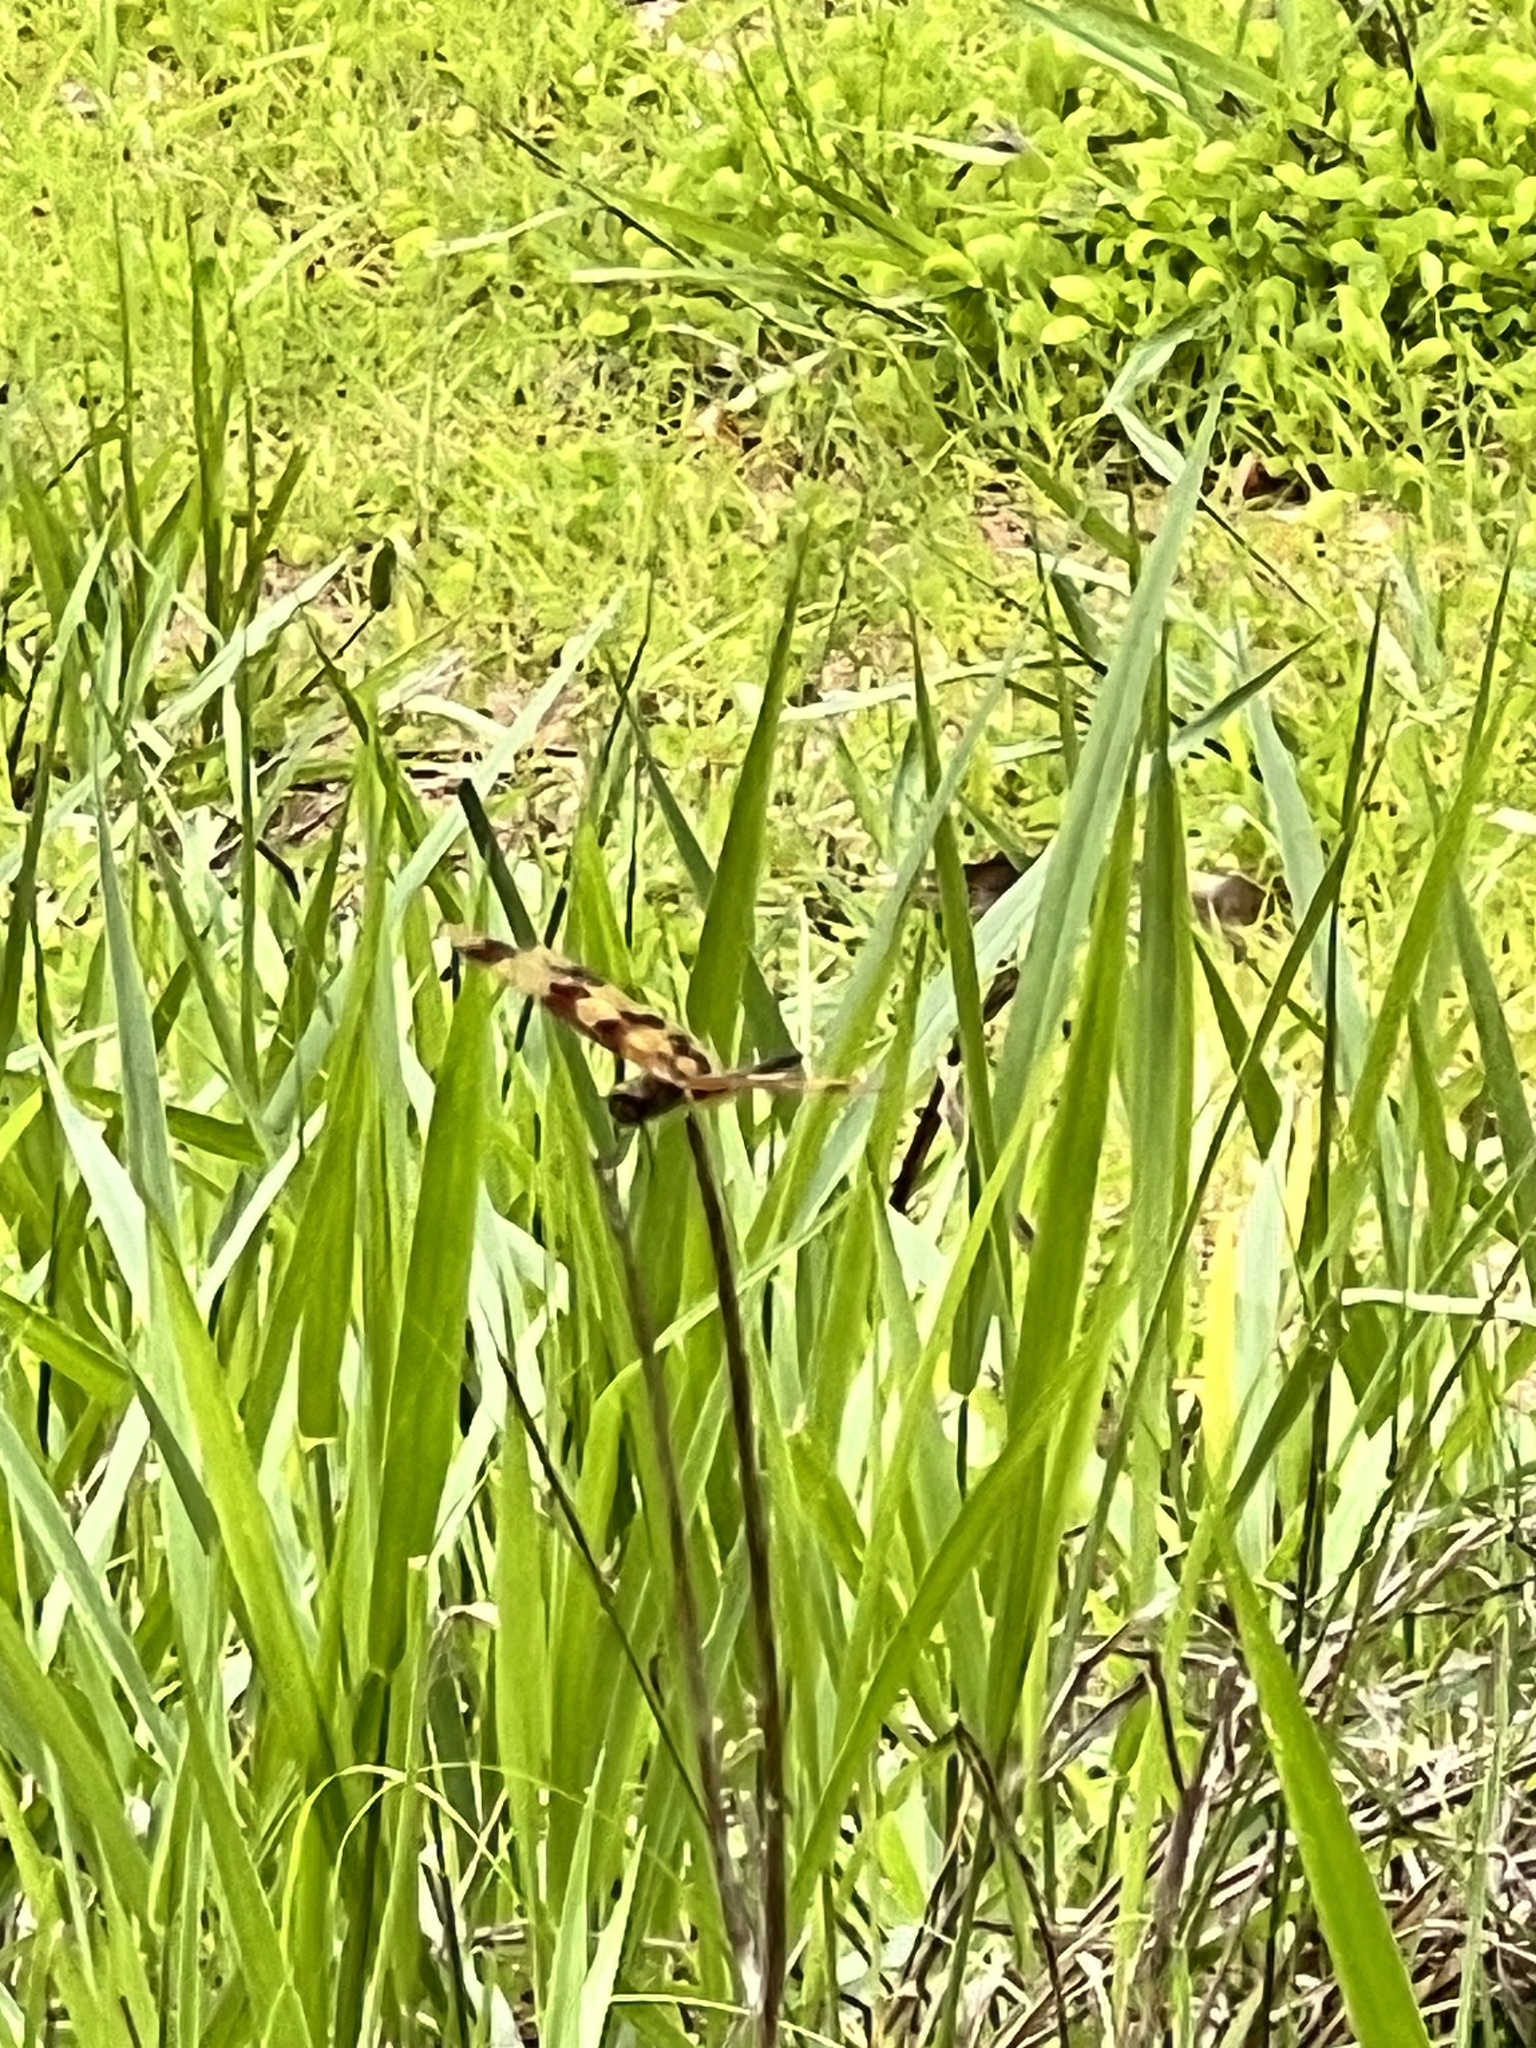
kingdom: Animalia
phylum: Arthropoda
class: Insecta
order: Odonata
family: Libellulidae
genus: Rhyothemis
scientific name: Rhyothemis graphiptera
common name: Graphic flutterer
